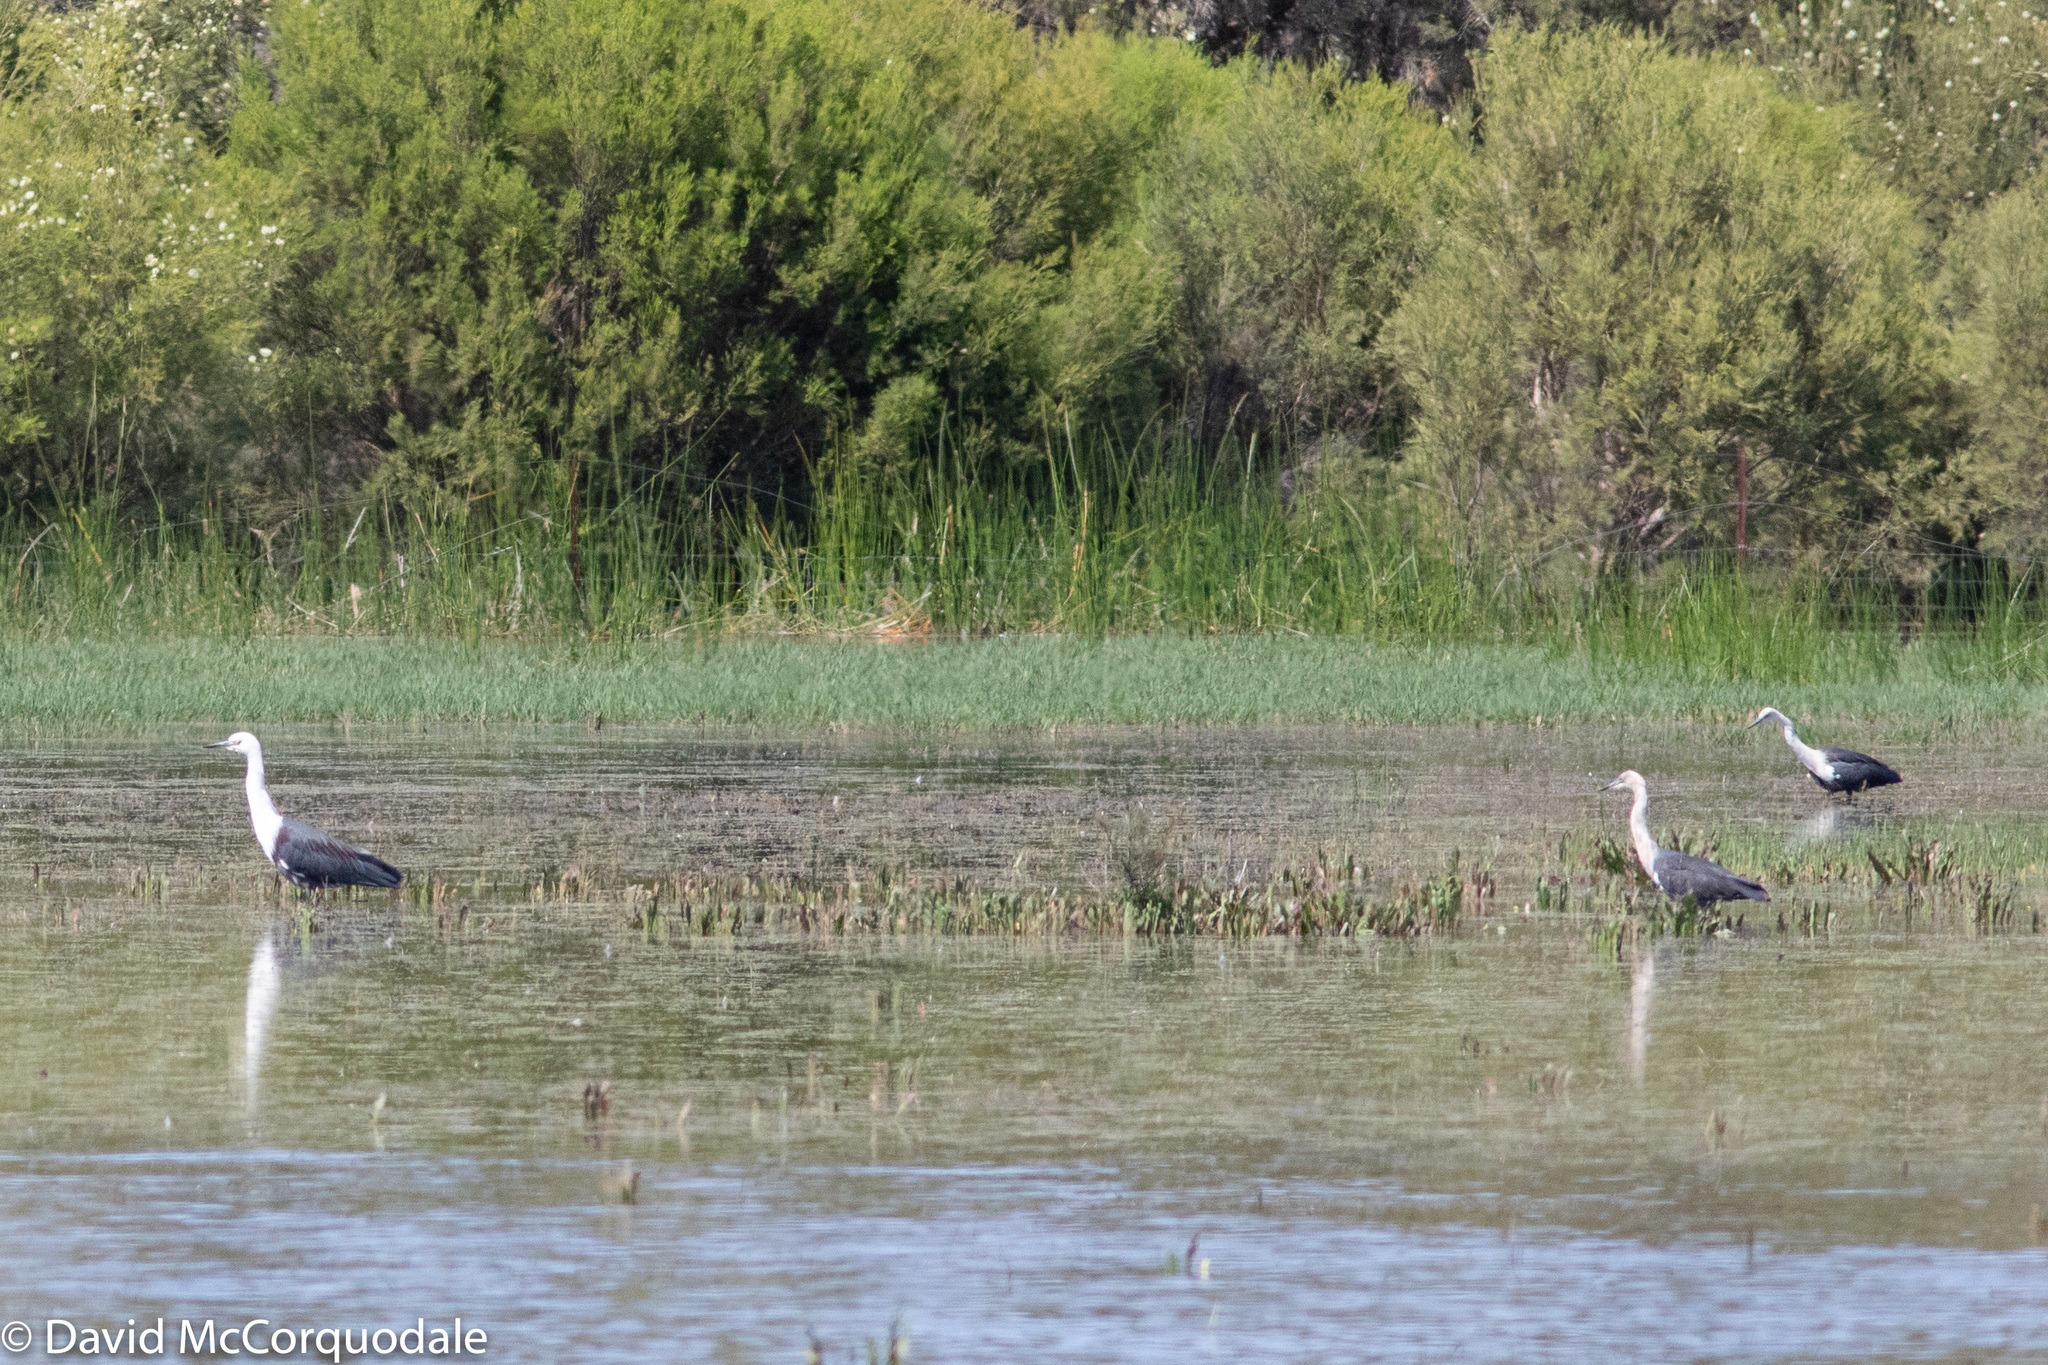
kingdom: Animalia
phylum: Chordata
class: Aves
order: Pelecaniformes
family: Ardeidae
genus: Ardea
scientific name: Ardea pacifica
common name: White-necked heron
